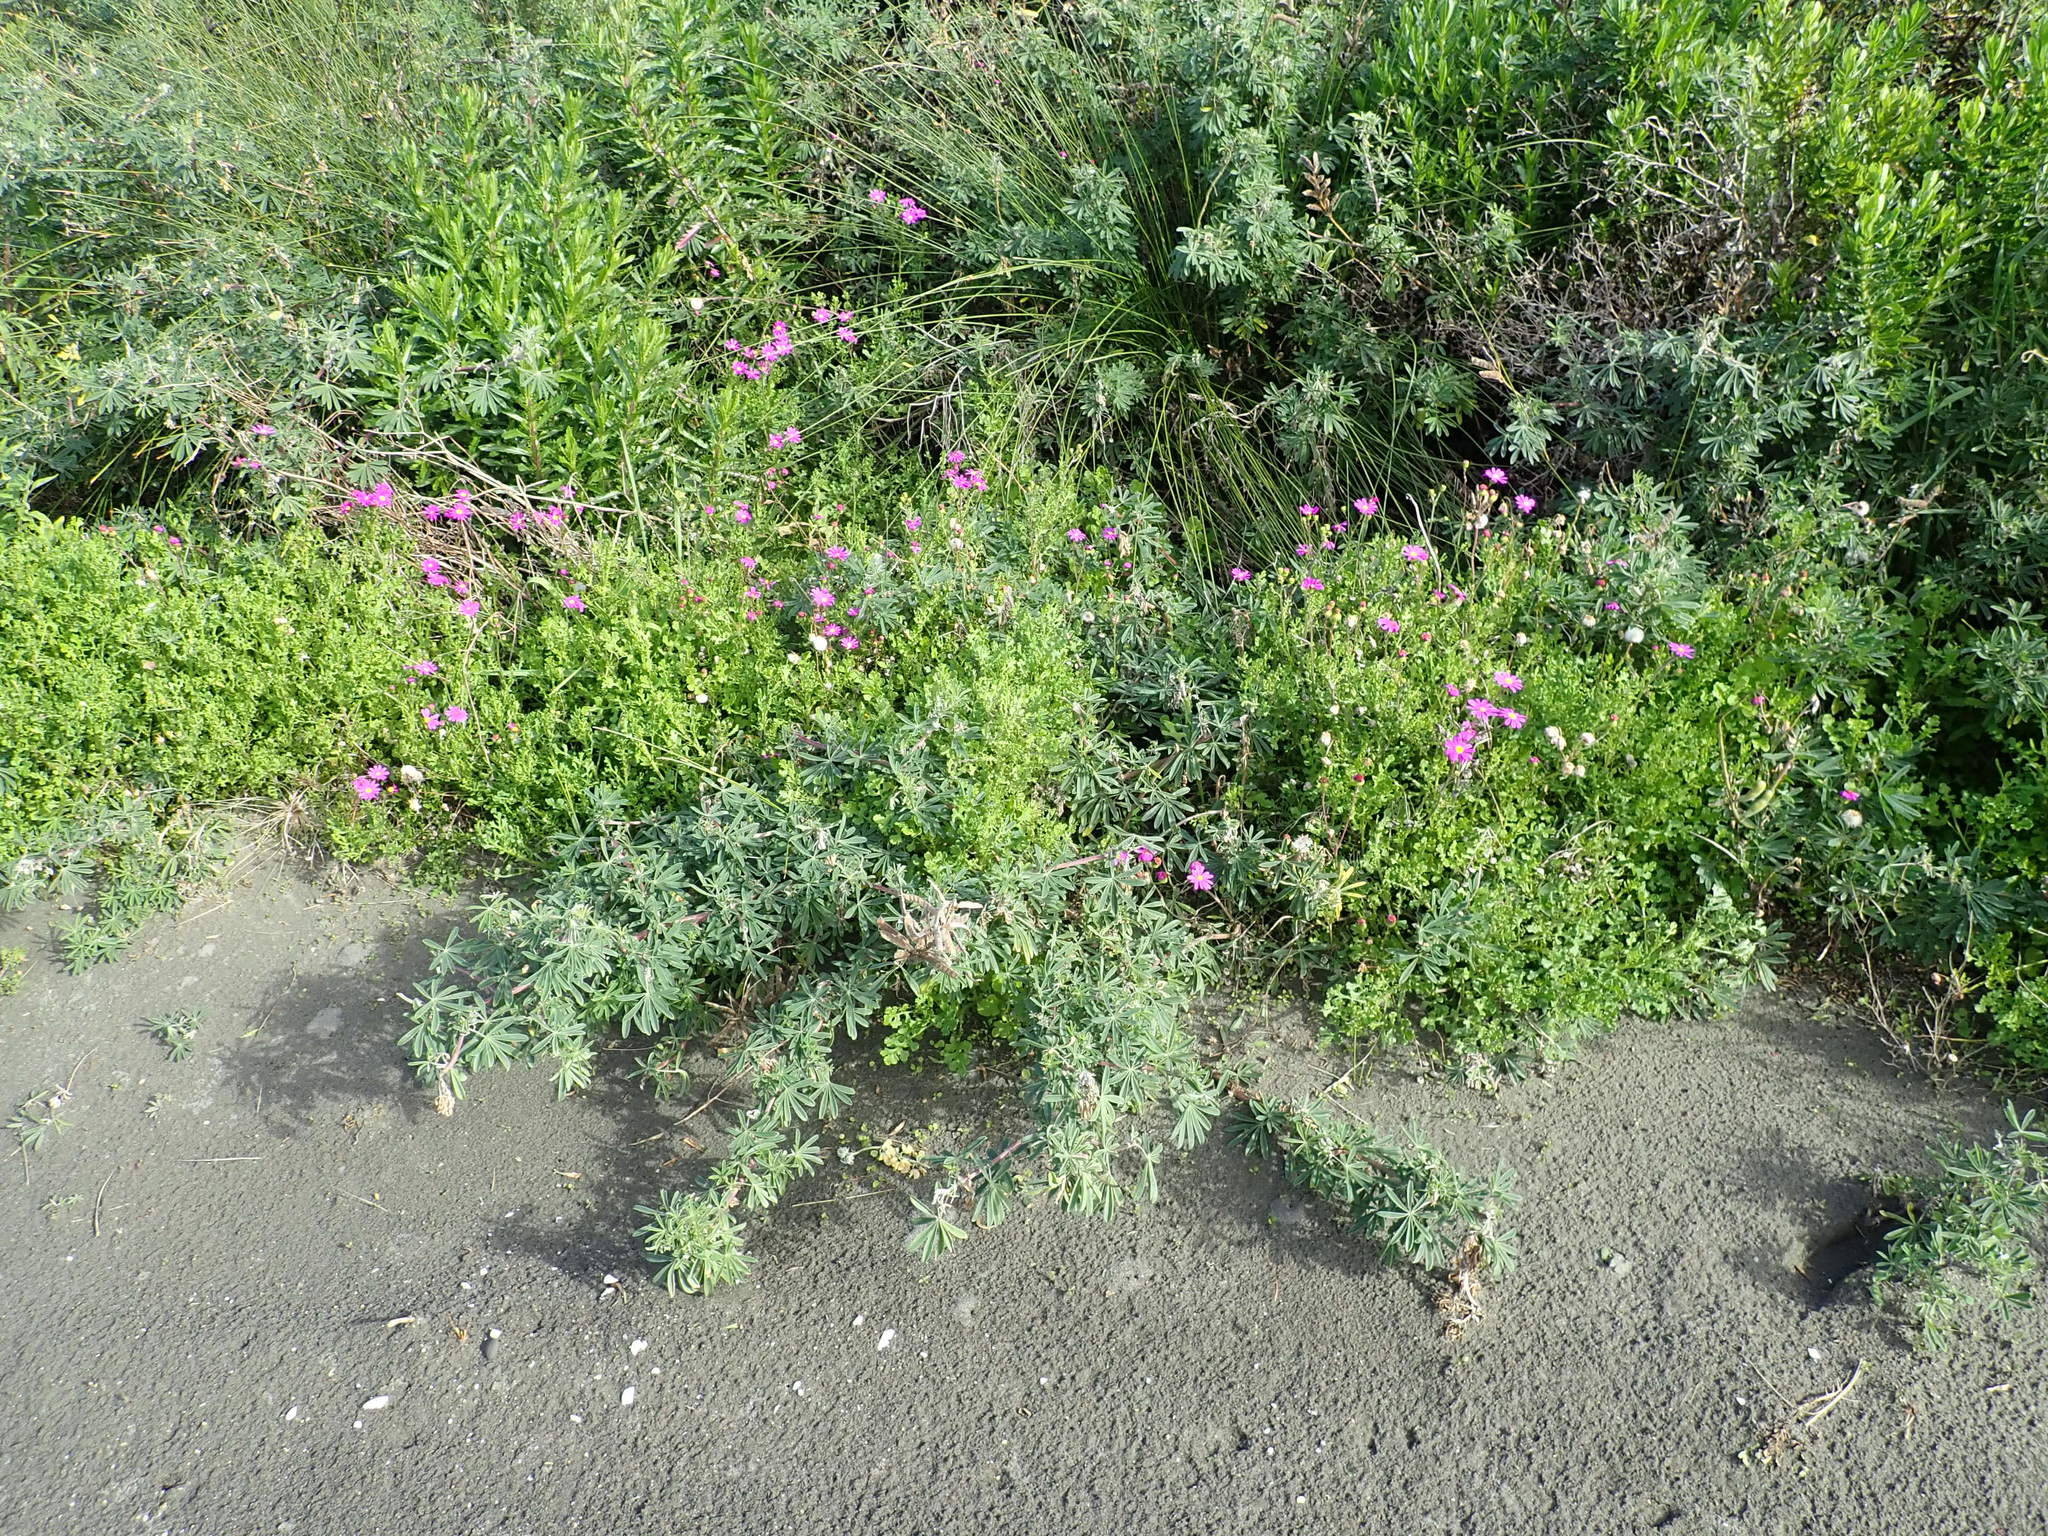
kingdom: Plantae
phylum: Tracheophyta
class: Magnoliopsida
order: Asterales
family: Asteraceae
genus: Senecio
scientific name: Senecio elegans
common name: Purple groundsel
